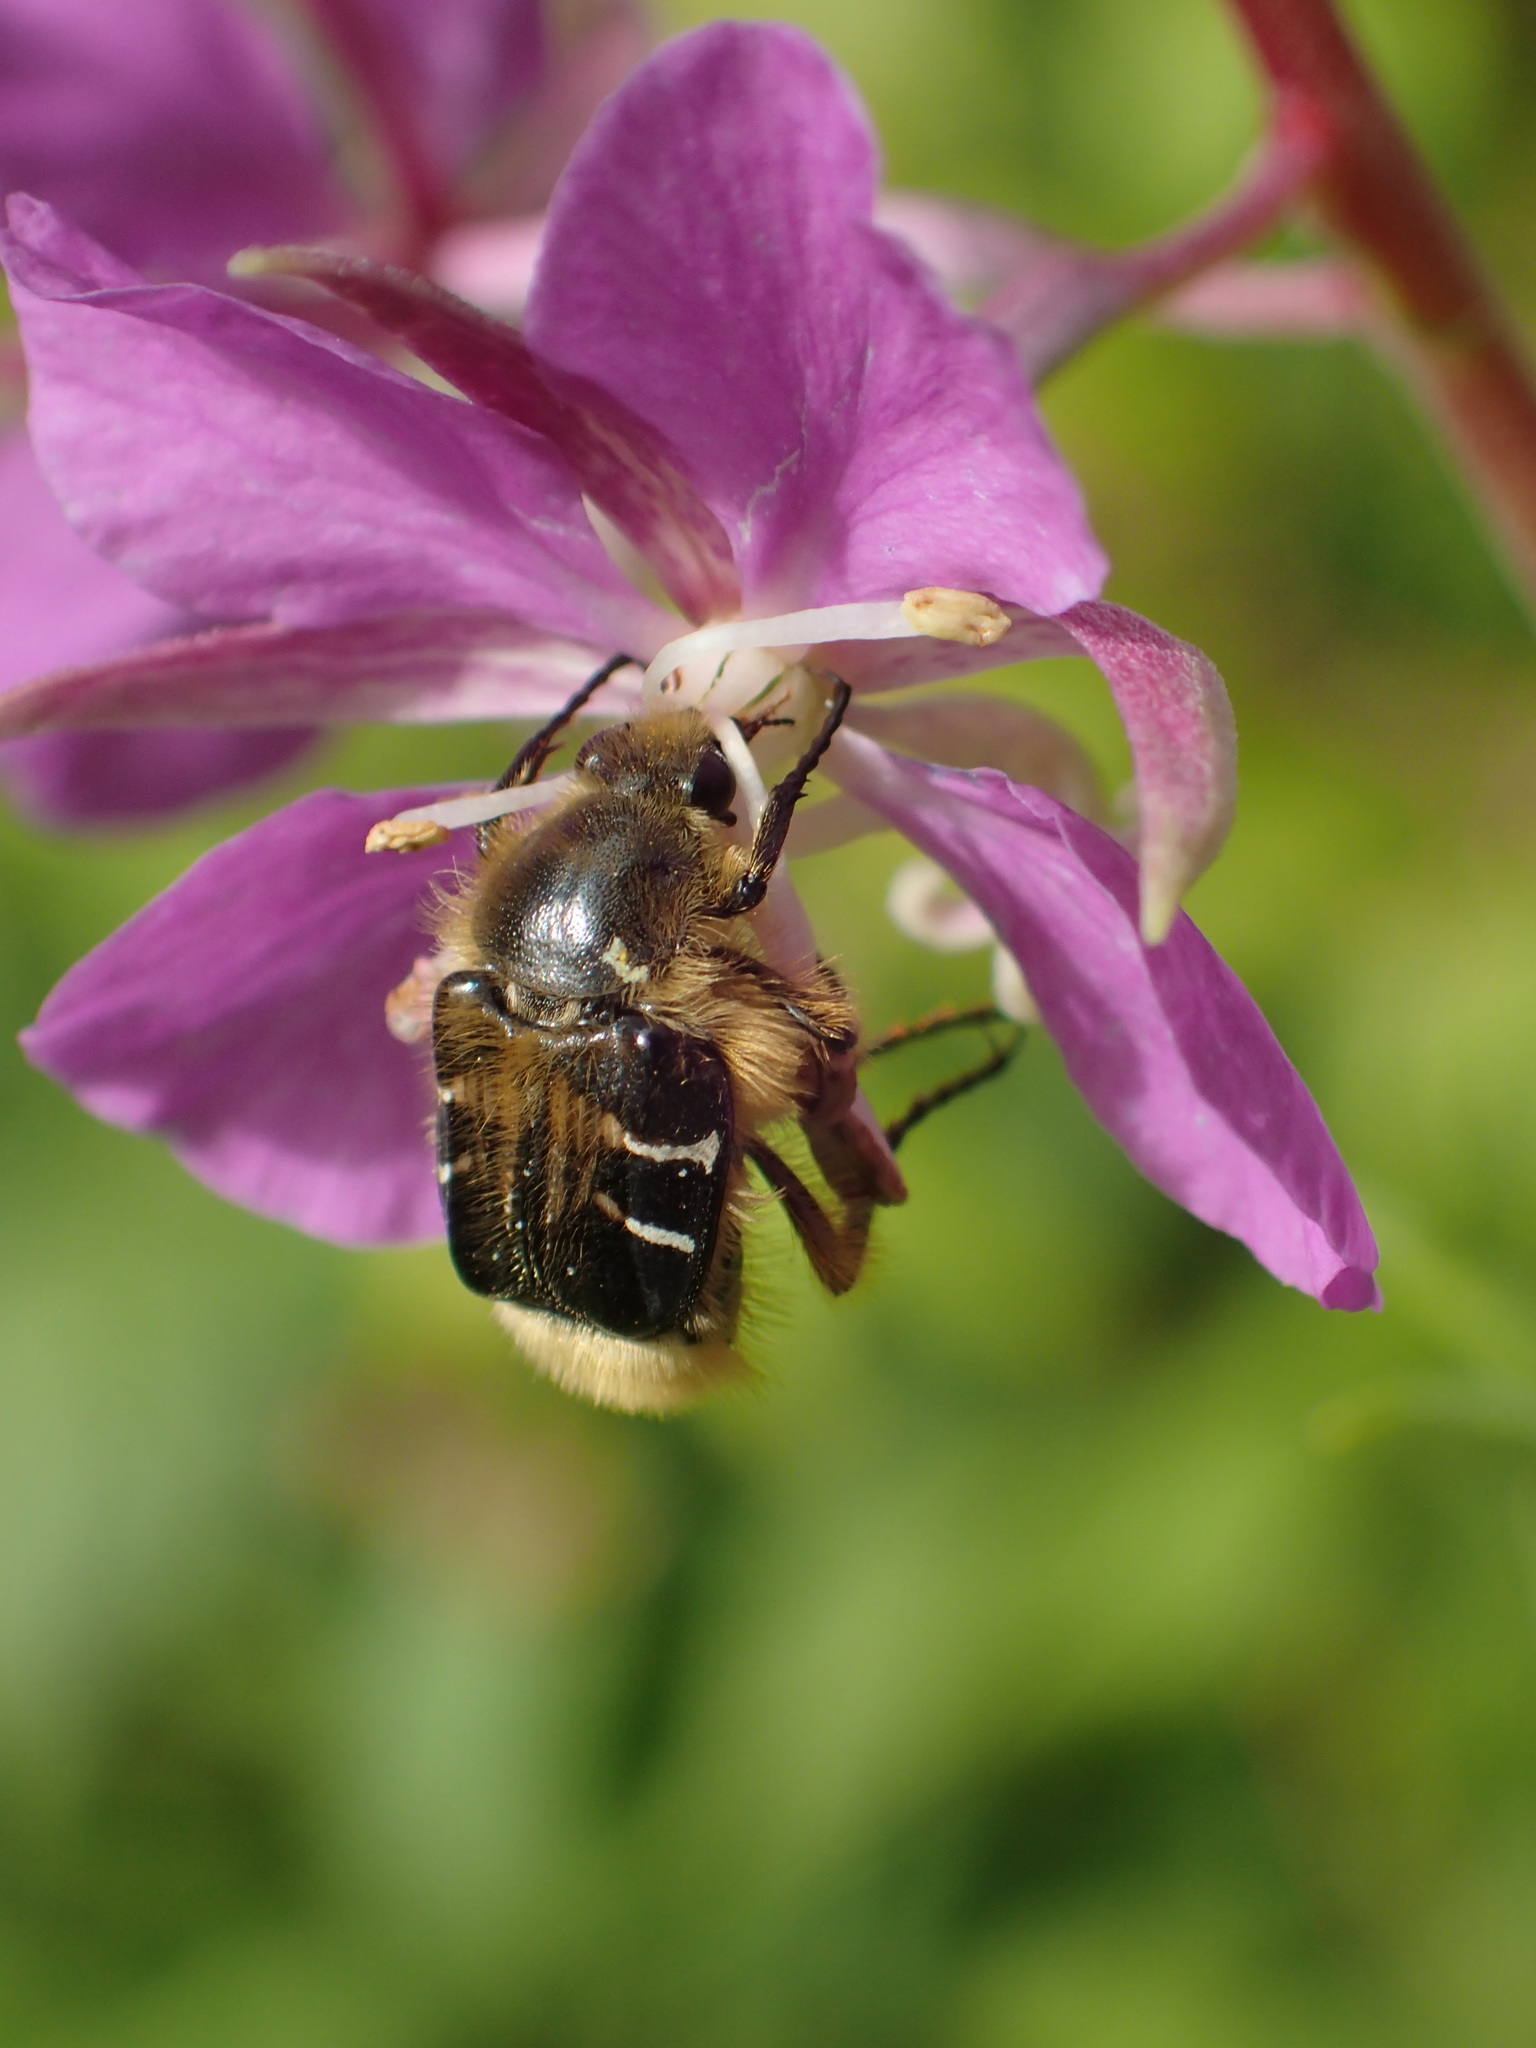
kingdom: Animalia
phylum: Arthropoda
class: Insecta
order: Coleoptera
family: Scarabaeidae
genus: Trichiotinus
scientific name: Trichiotinus assimilis
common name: Bee-mimic beetle
